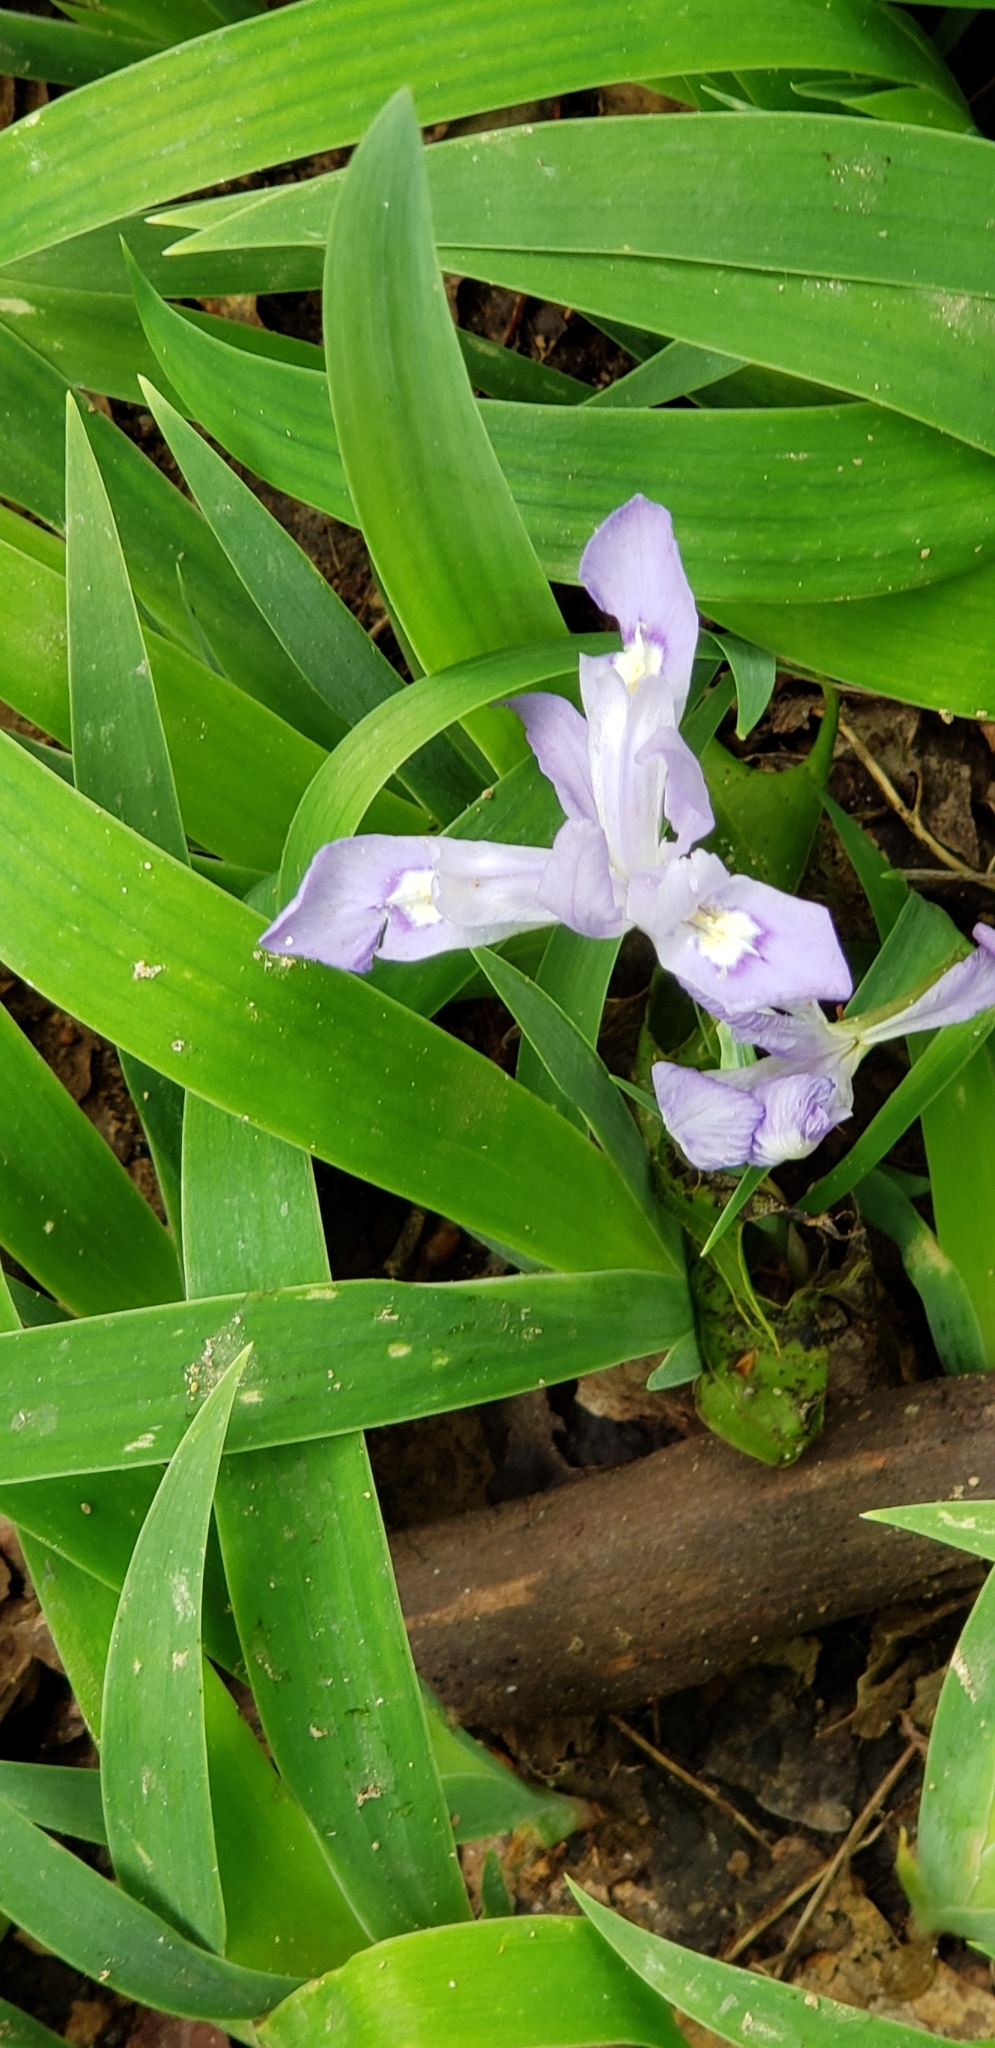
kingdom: Plantae
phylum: Tracheophyta
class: Liliopsida
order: Asparagales
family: Iridaceae
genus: Iris
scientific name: Iris cristata
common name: Crested iris
